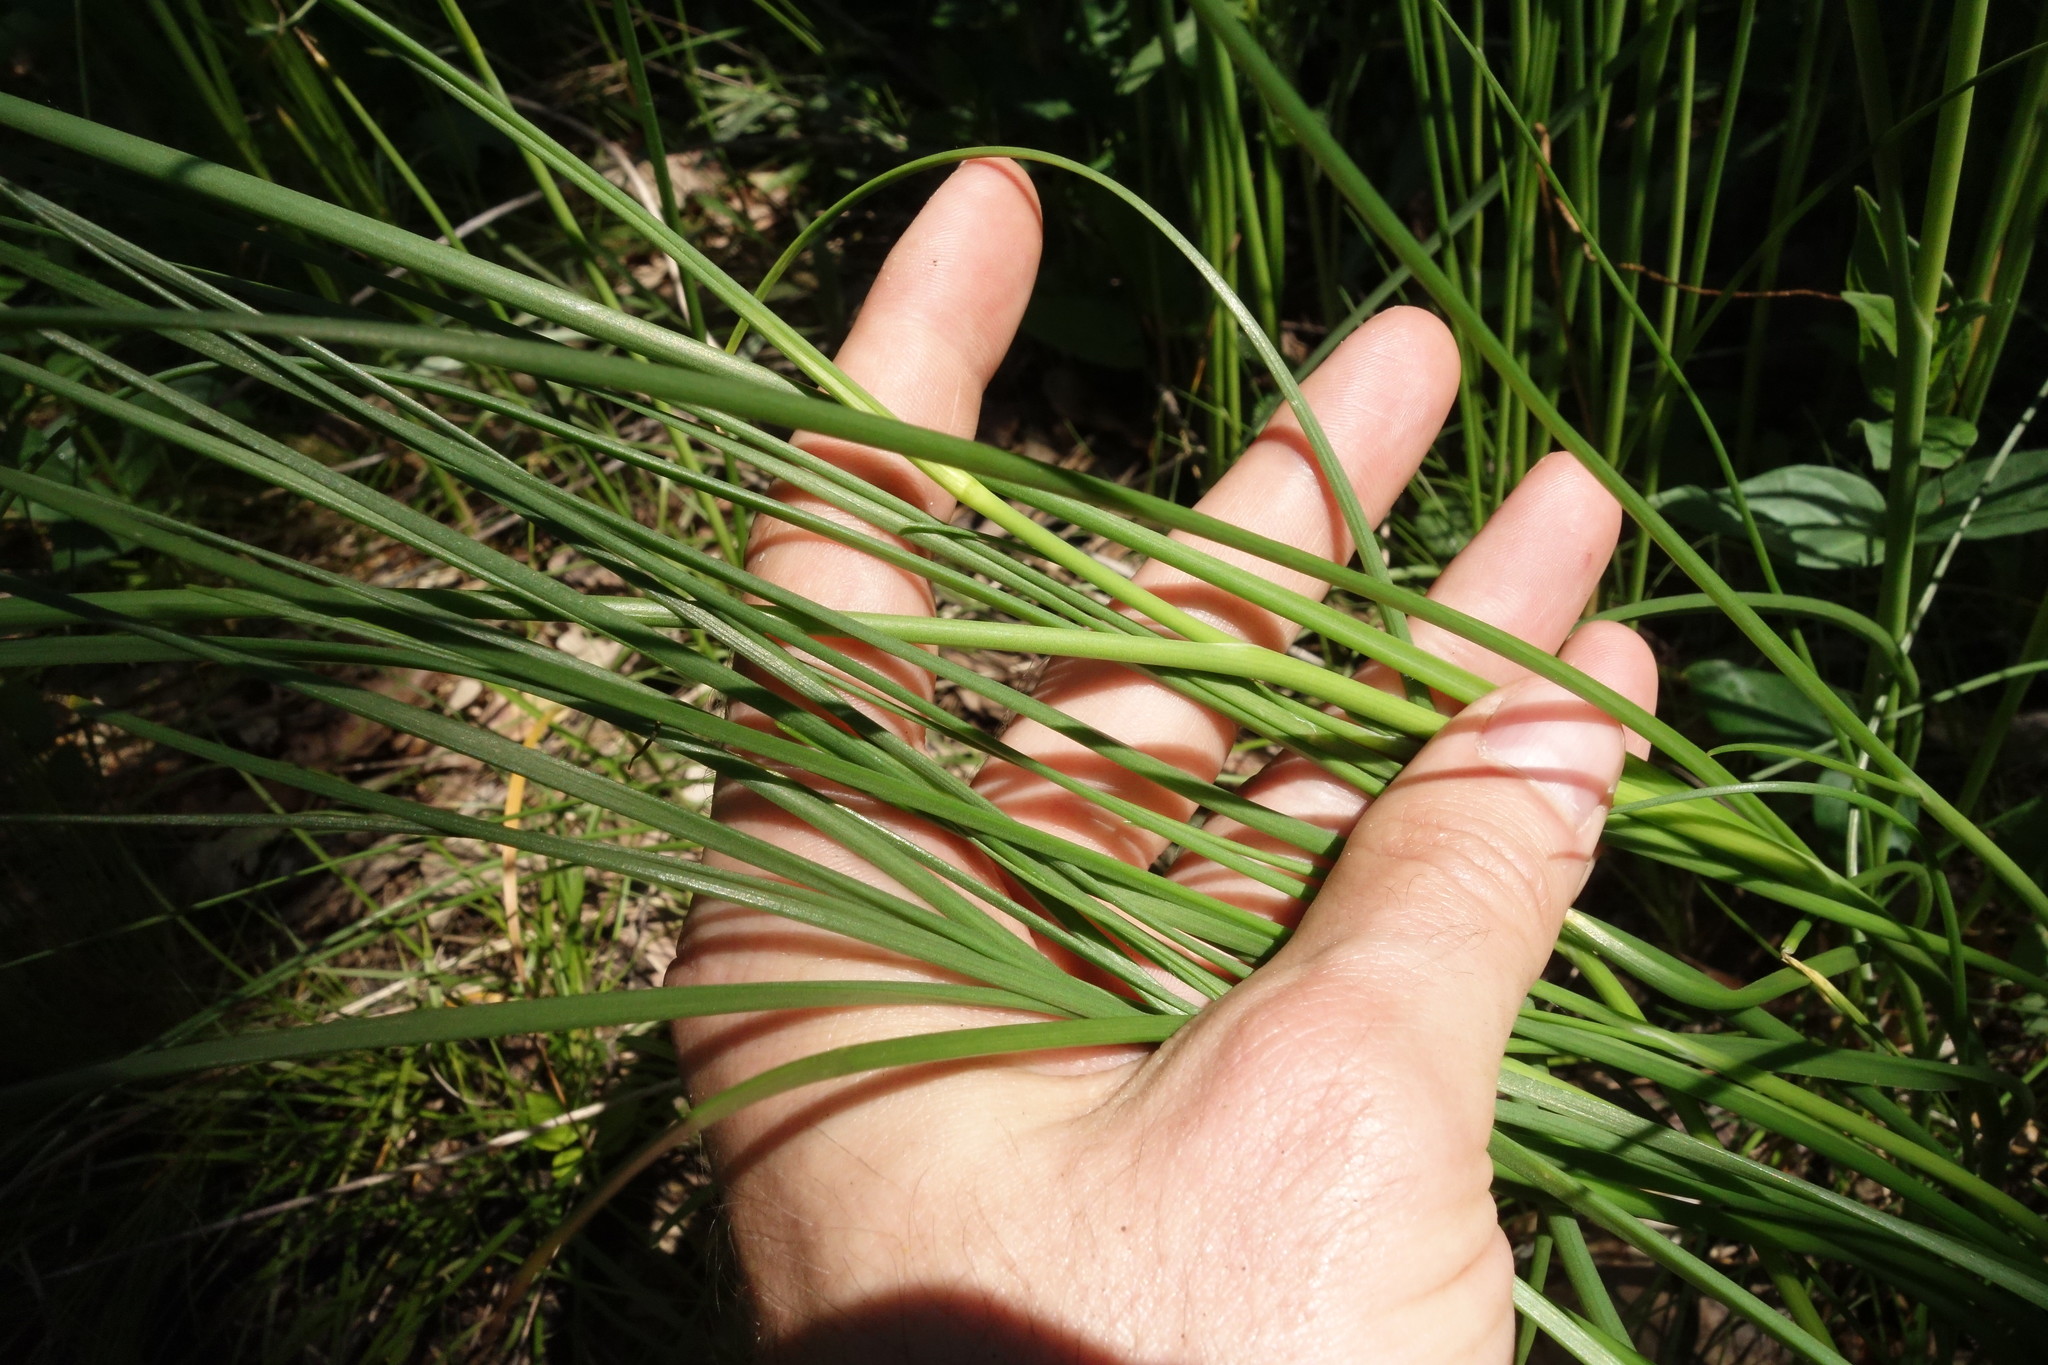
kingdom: Plantae
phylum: Tracheophyta
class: Liliopsida
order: Asparagales
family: Asparagaceae
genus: Anthericum
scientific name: Anthericum ramosum
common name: Branched st. bernard's-lily
